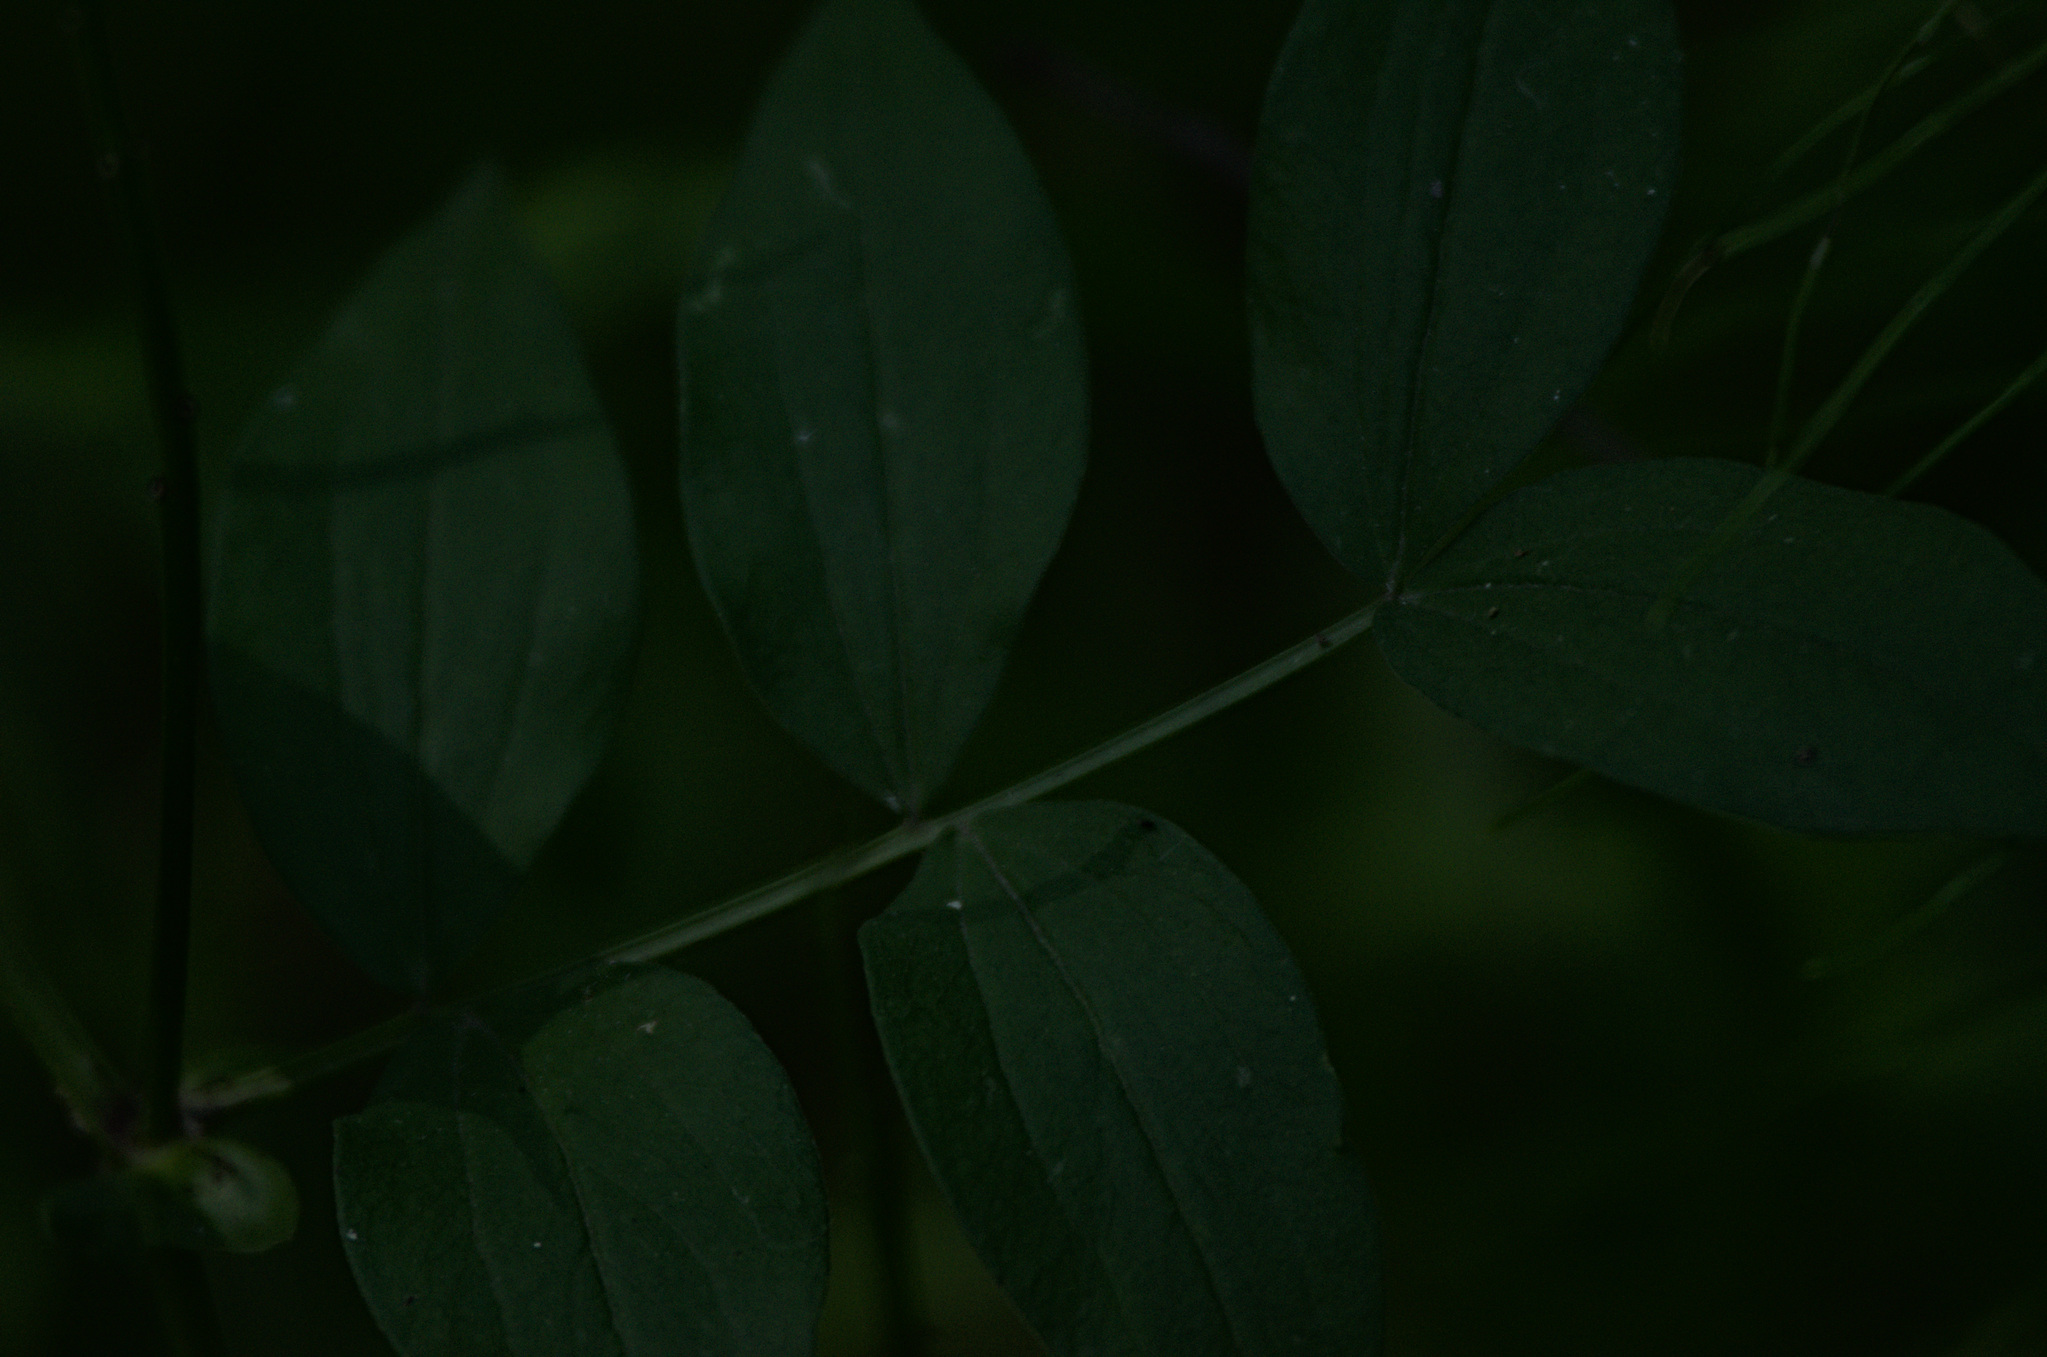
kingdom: Plantae
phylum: Tracheophyta
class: Magnoliopsida
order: Fabales
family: Fabaceae
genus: Lathyrus
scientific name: Lathyrus vernus
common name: Spring pea
